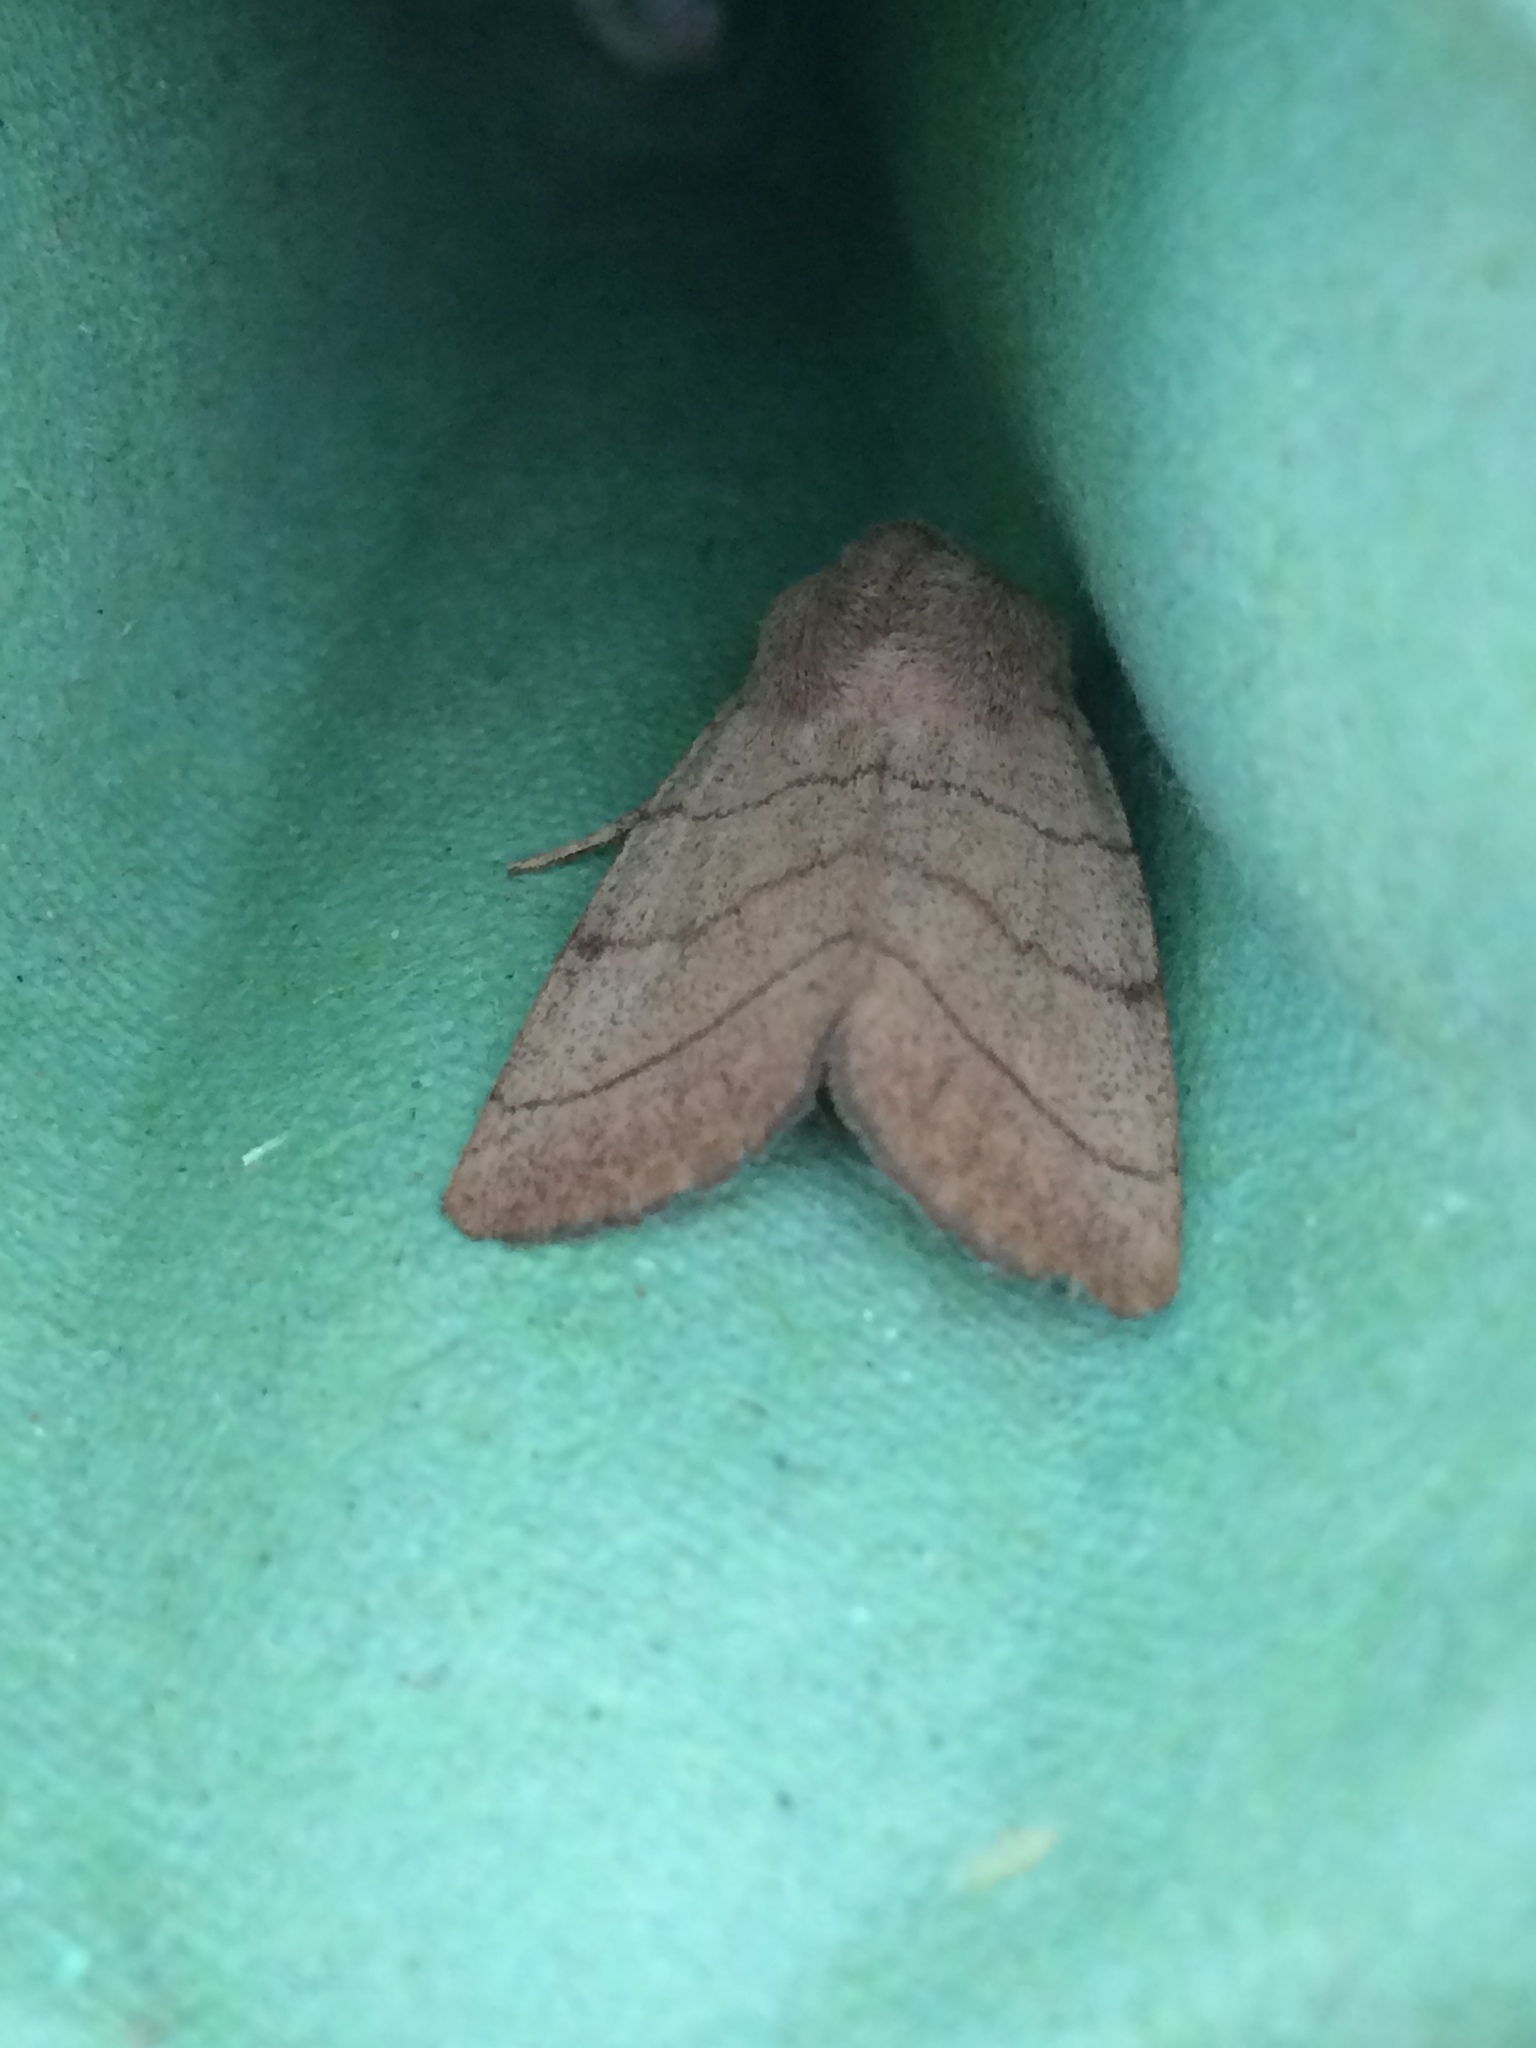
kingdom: Animalia
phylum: Arthropoda
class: Insecta
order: Lepidoptera
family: Noctuidae
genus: Charanyca
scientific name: Charanyca trigrammica
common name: Treble lines
